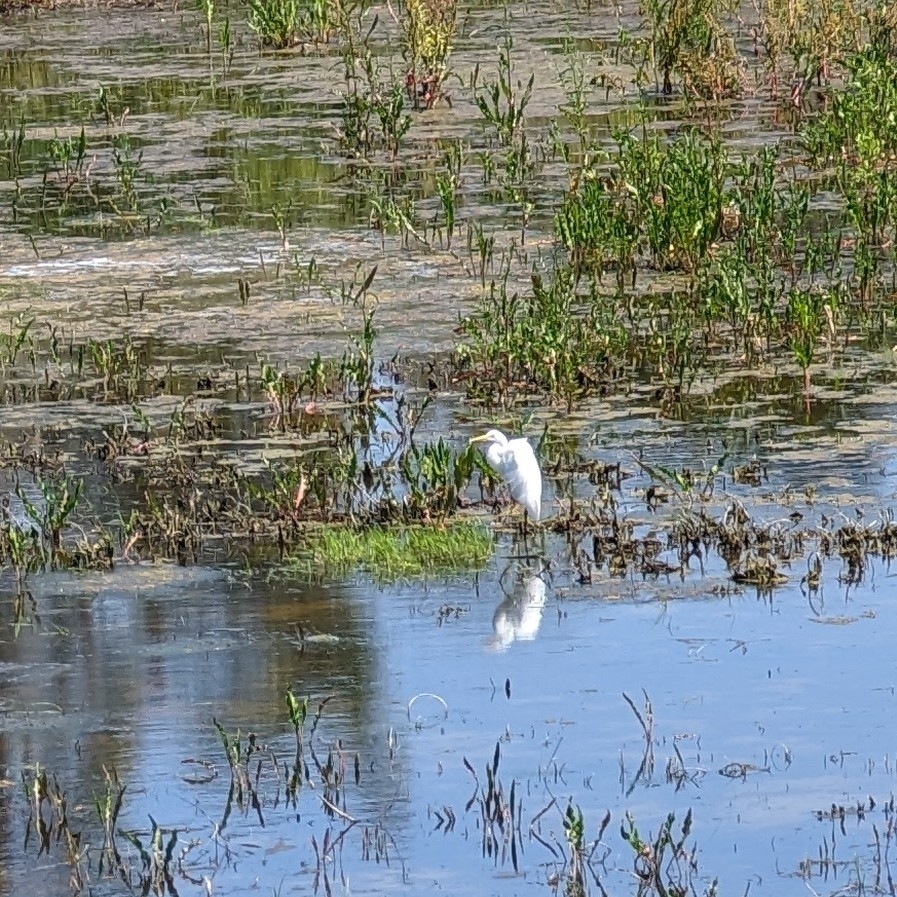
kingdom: Animalia
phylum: Chordata
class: Aves
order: Pelecaniformes
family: Ardeidae
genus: Ardea
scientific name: Ardea alba
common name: Great egret
